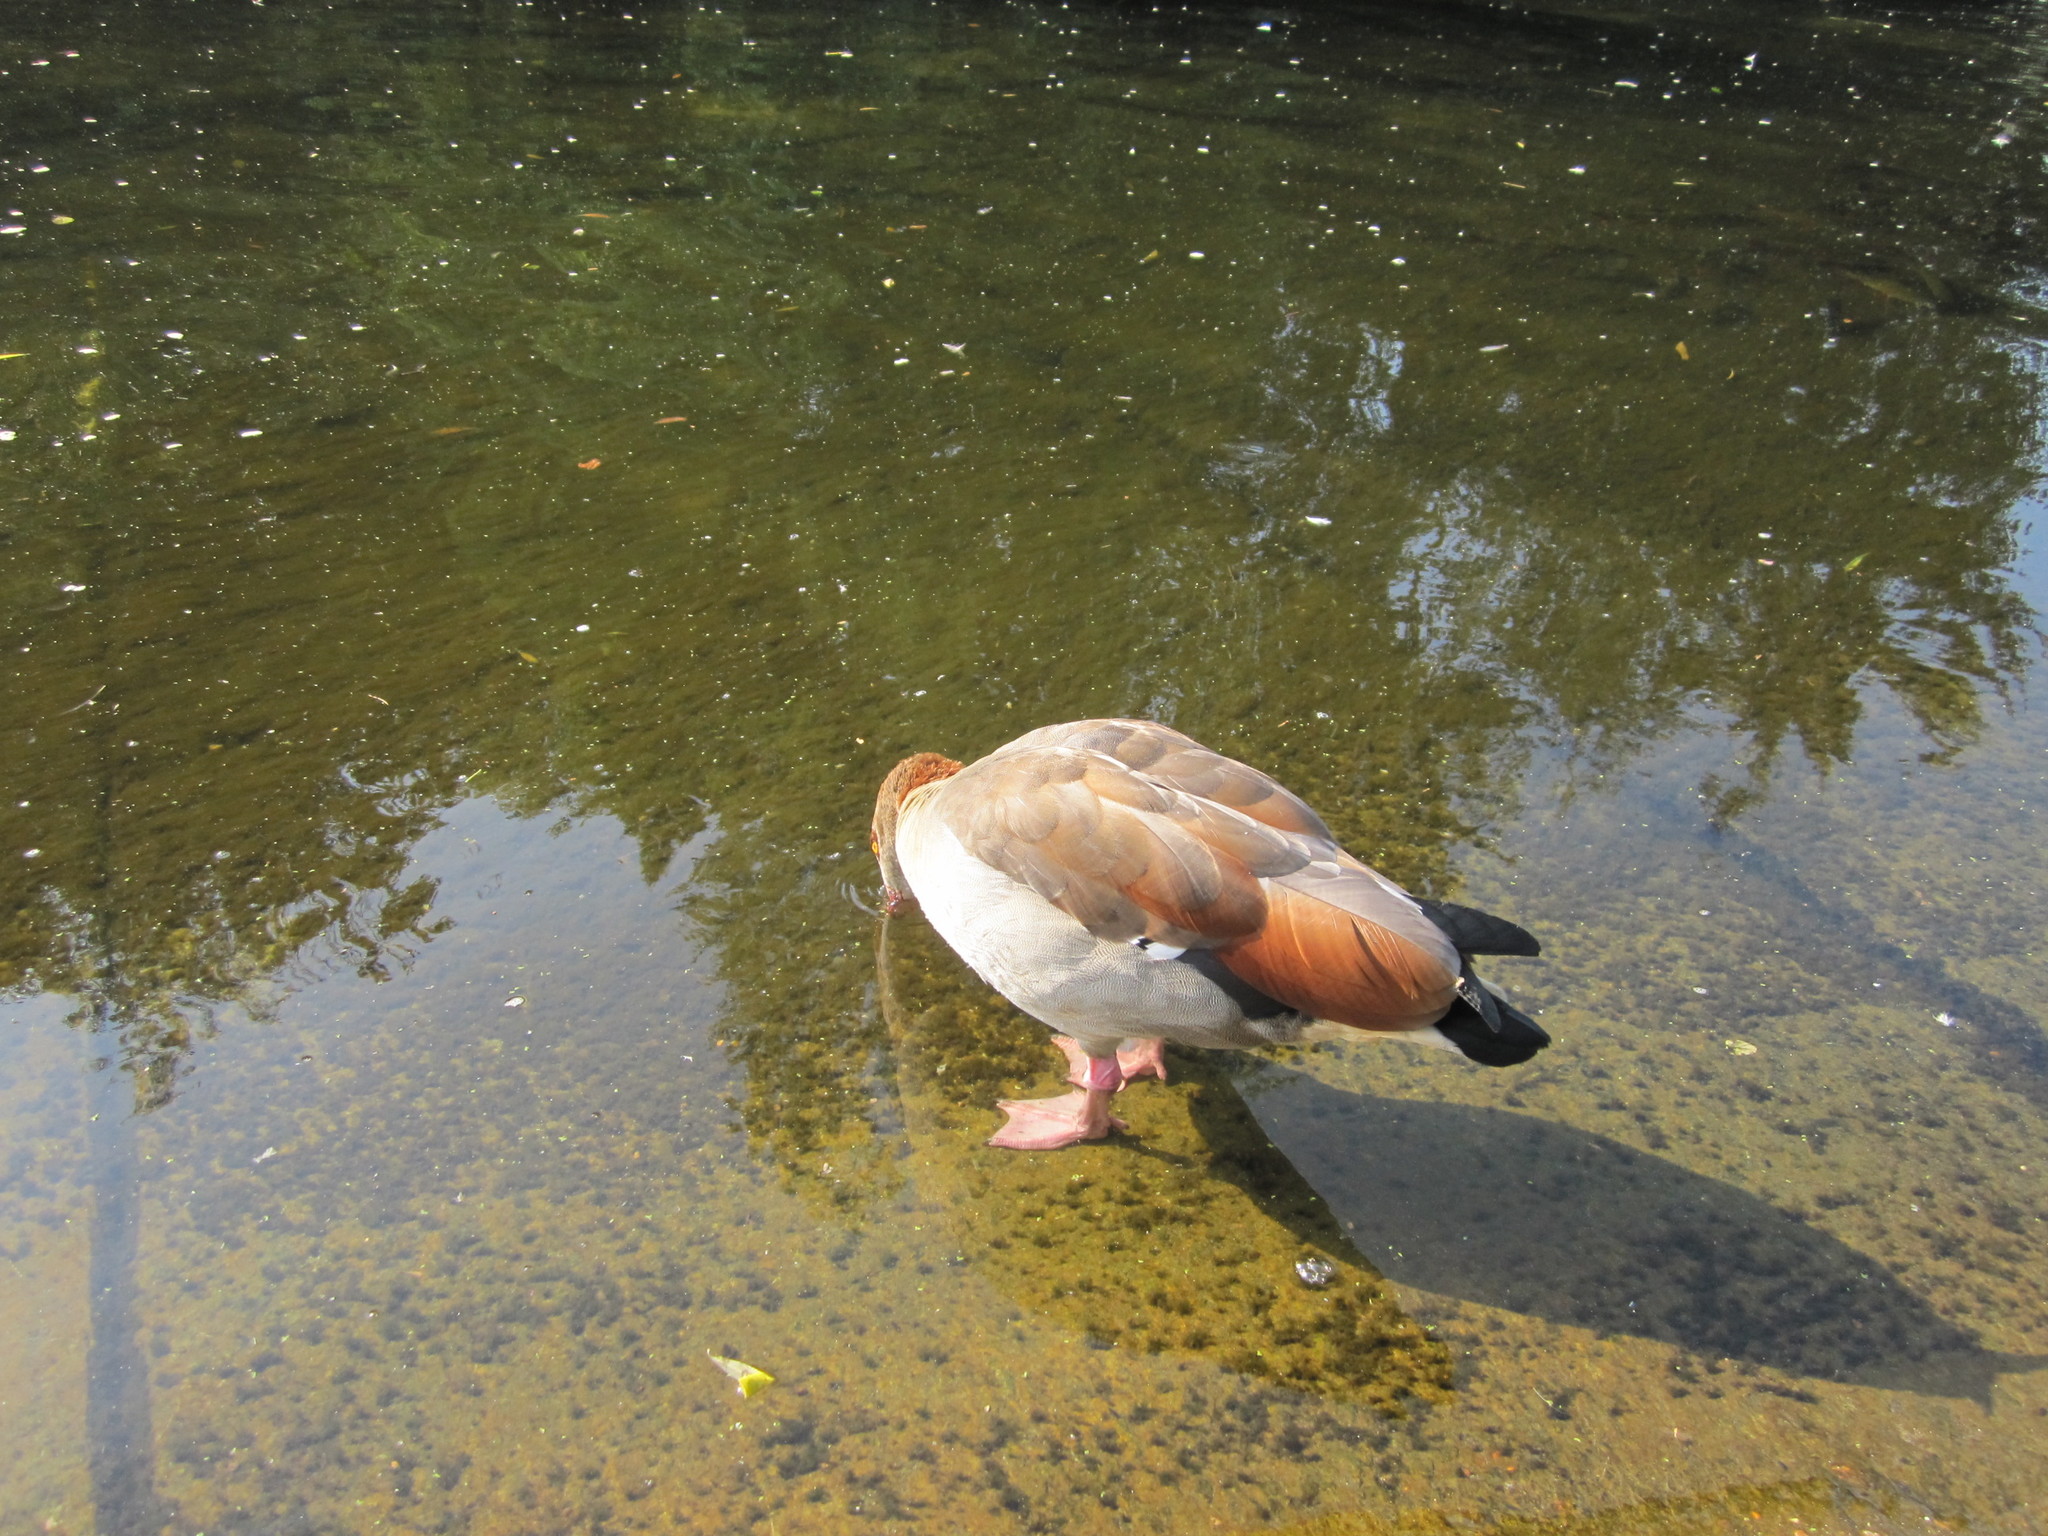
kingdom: Animalia
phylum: Chordata
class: Aves
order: Anseriformes
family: Anatidae
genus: Alopochen
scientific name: Alopochen aegyptiaca
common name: Egyptian goose
